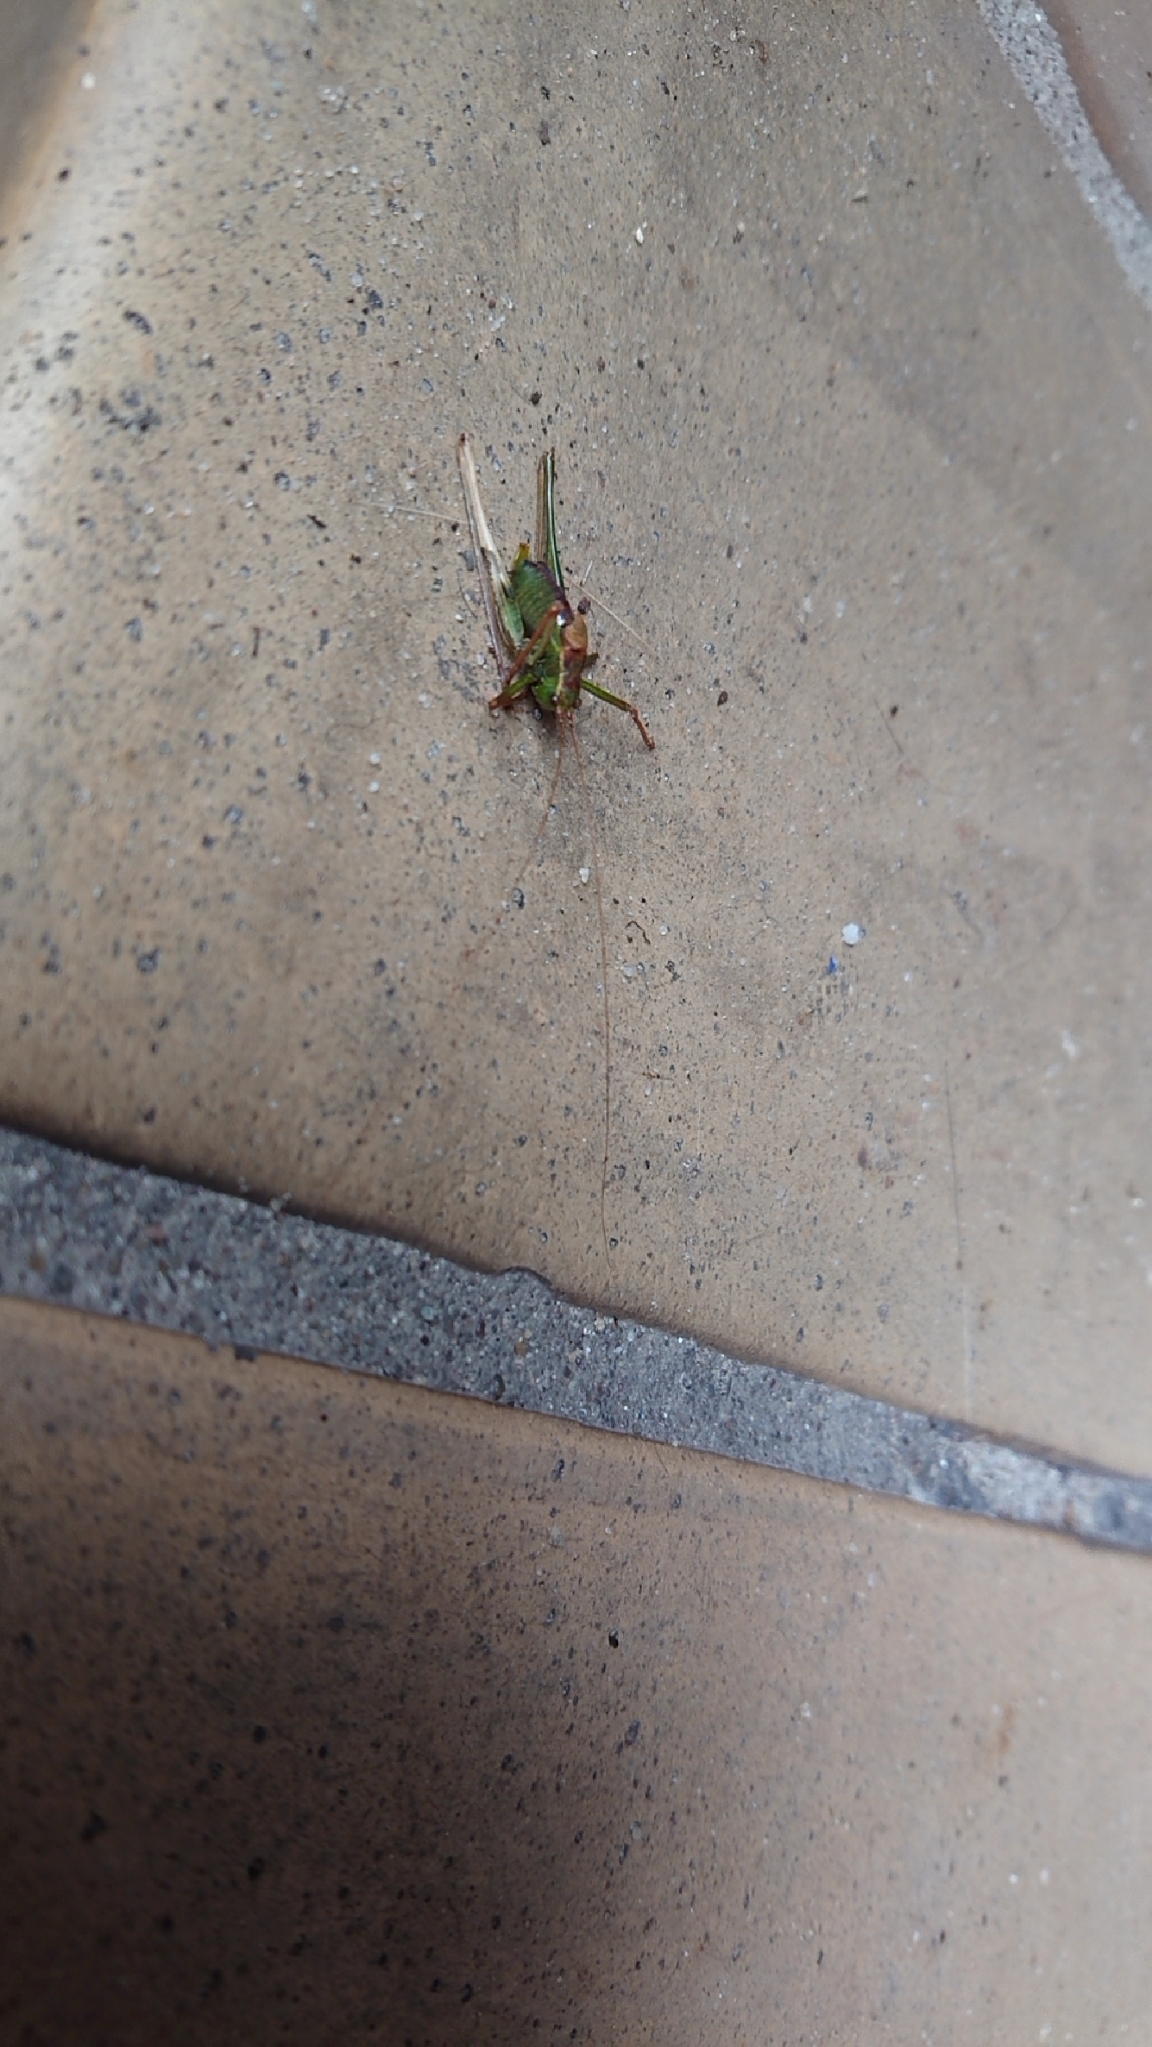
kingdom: Animalia
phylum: Arthropoda
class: Insecta
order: Orthoptera
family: Tettigoniidae
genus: Leptophyes
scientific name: Leptophyes punctatissima
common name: Speckled bush-cricket
